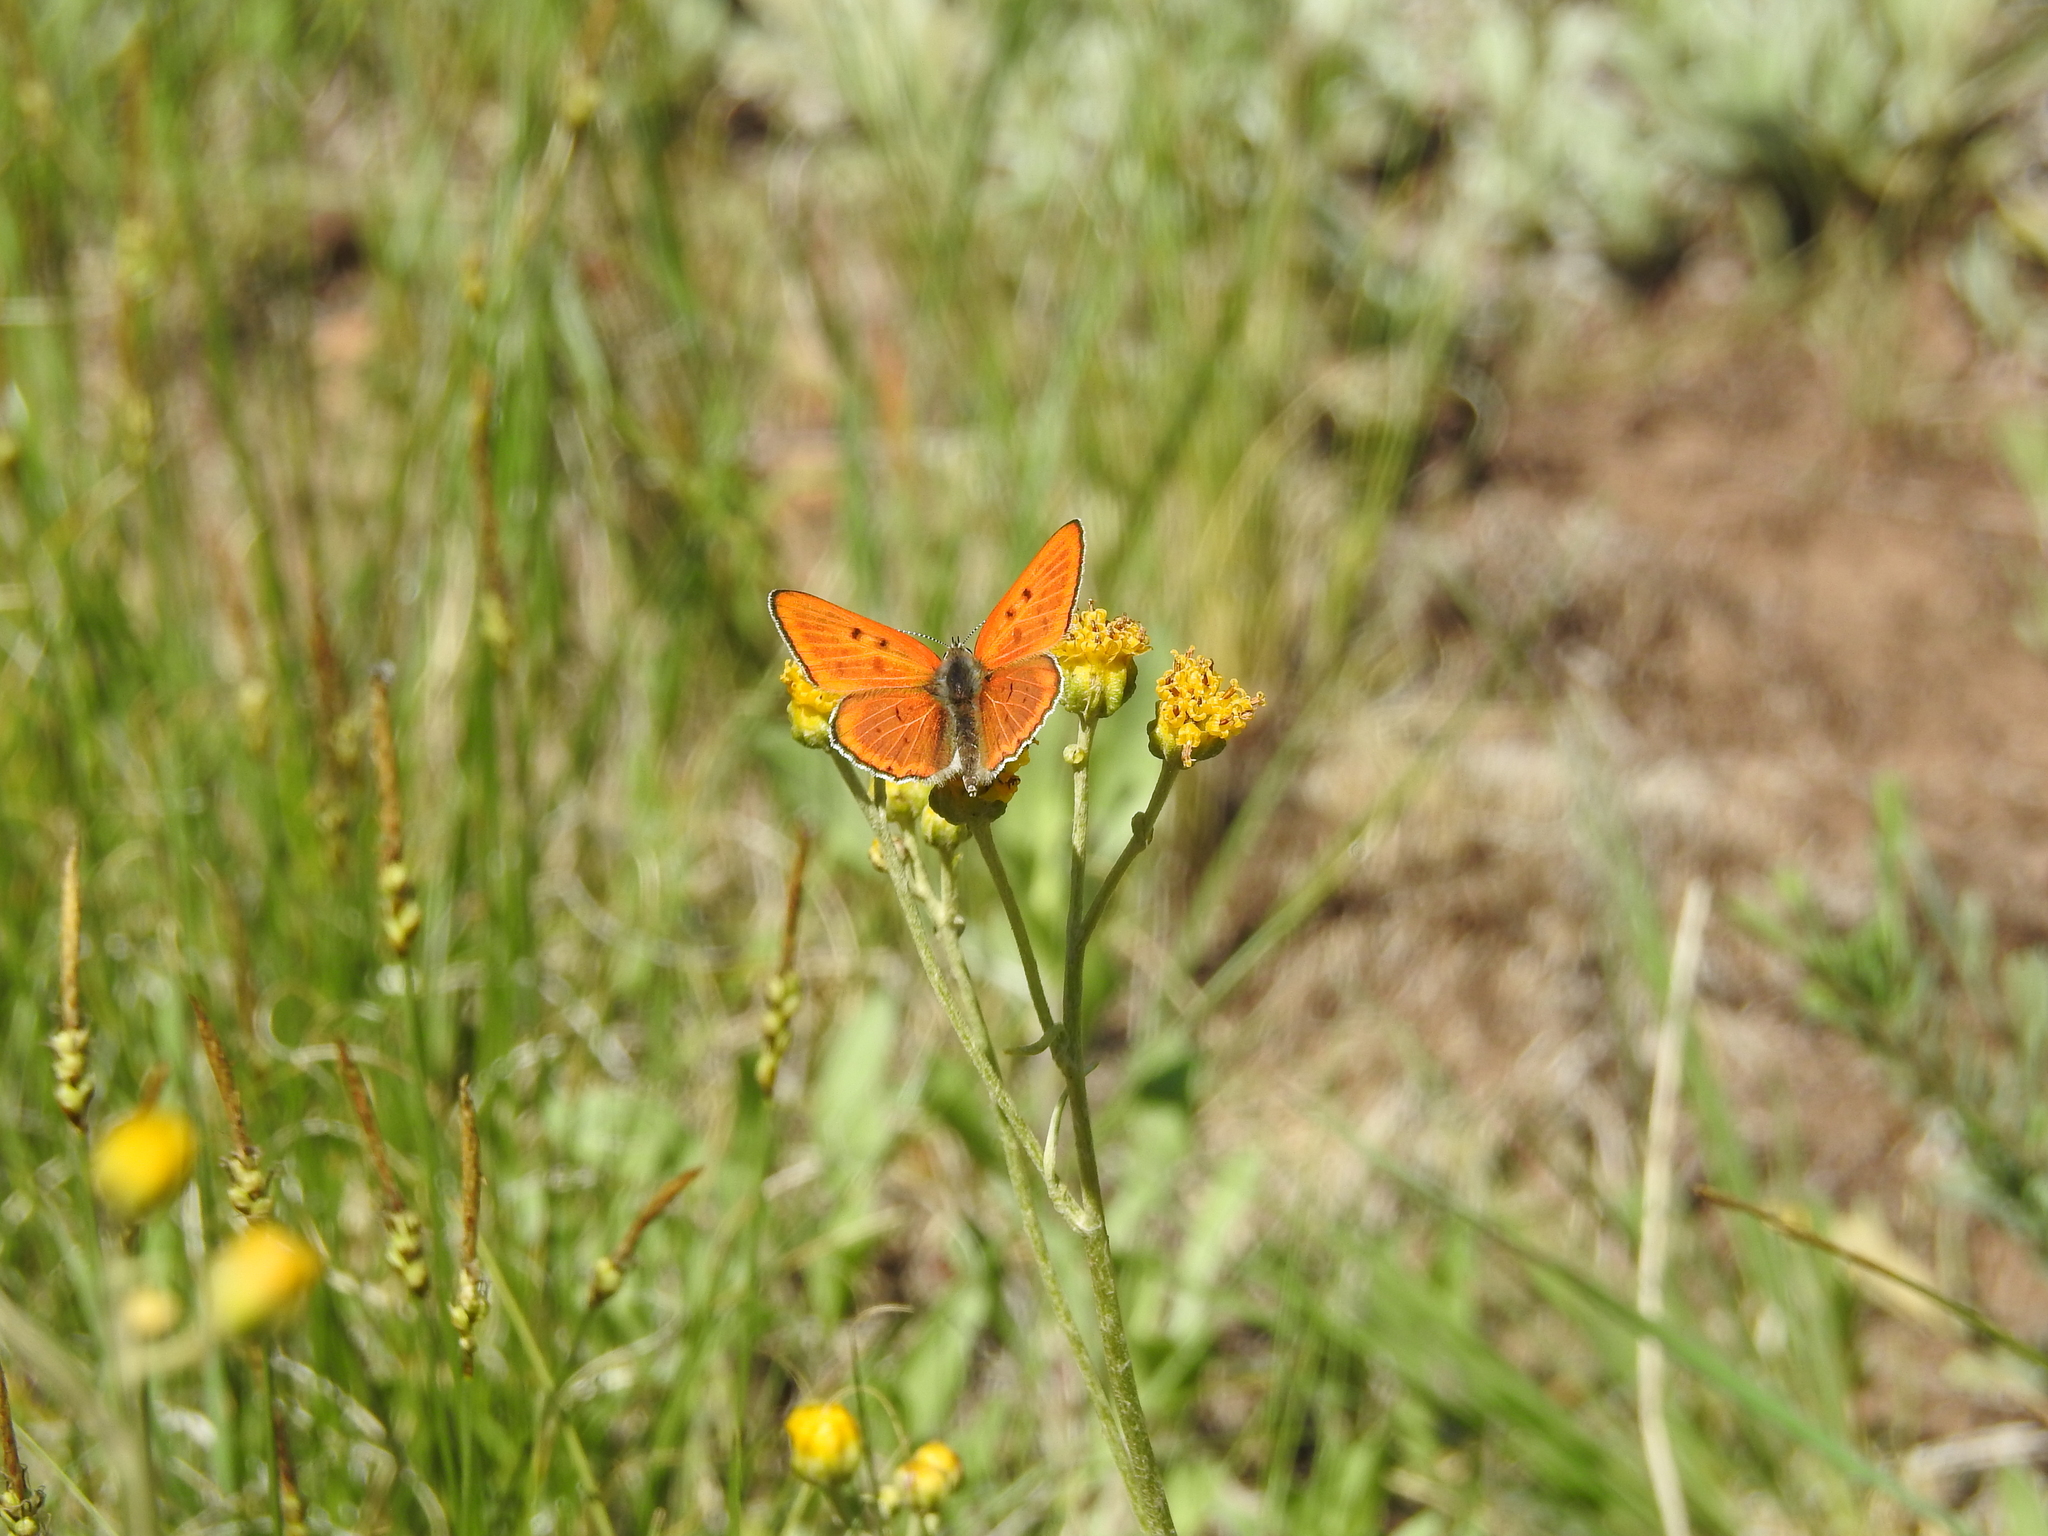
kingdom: Animalia
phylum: Arthropoda
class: Insecta
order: Lepidoptera
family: Lycaenidae
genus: Tharsalea
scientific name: Tharsalea rubidus
